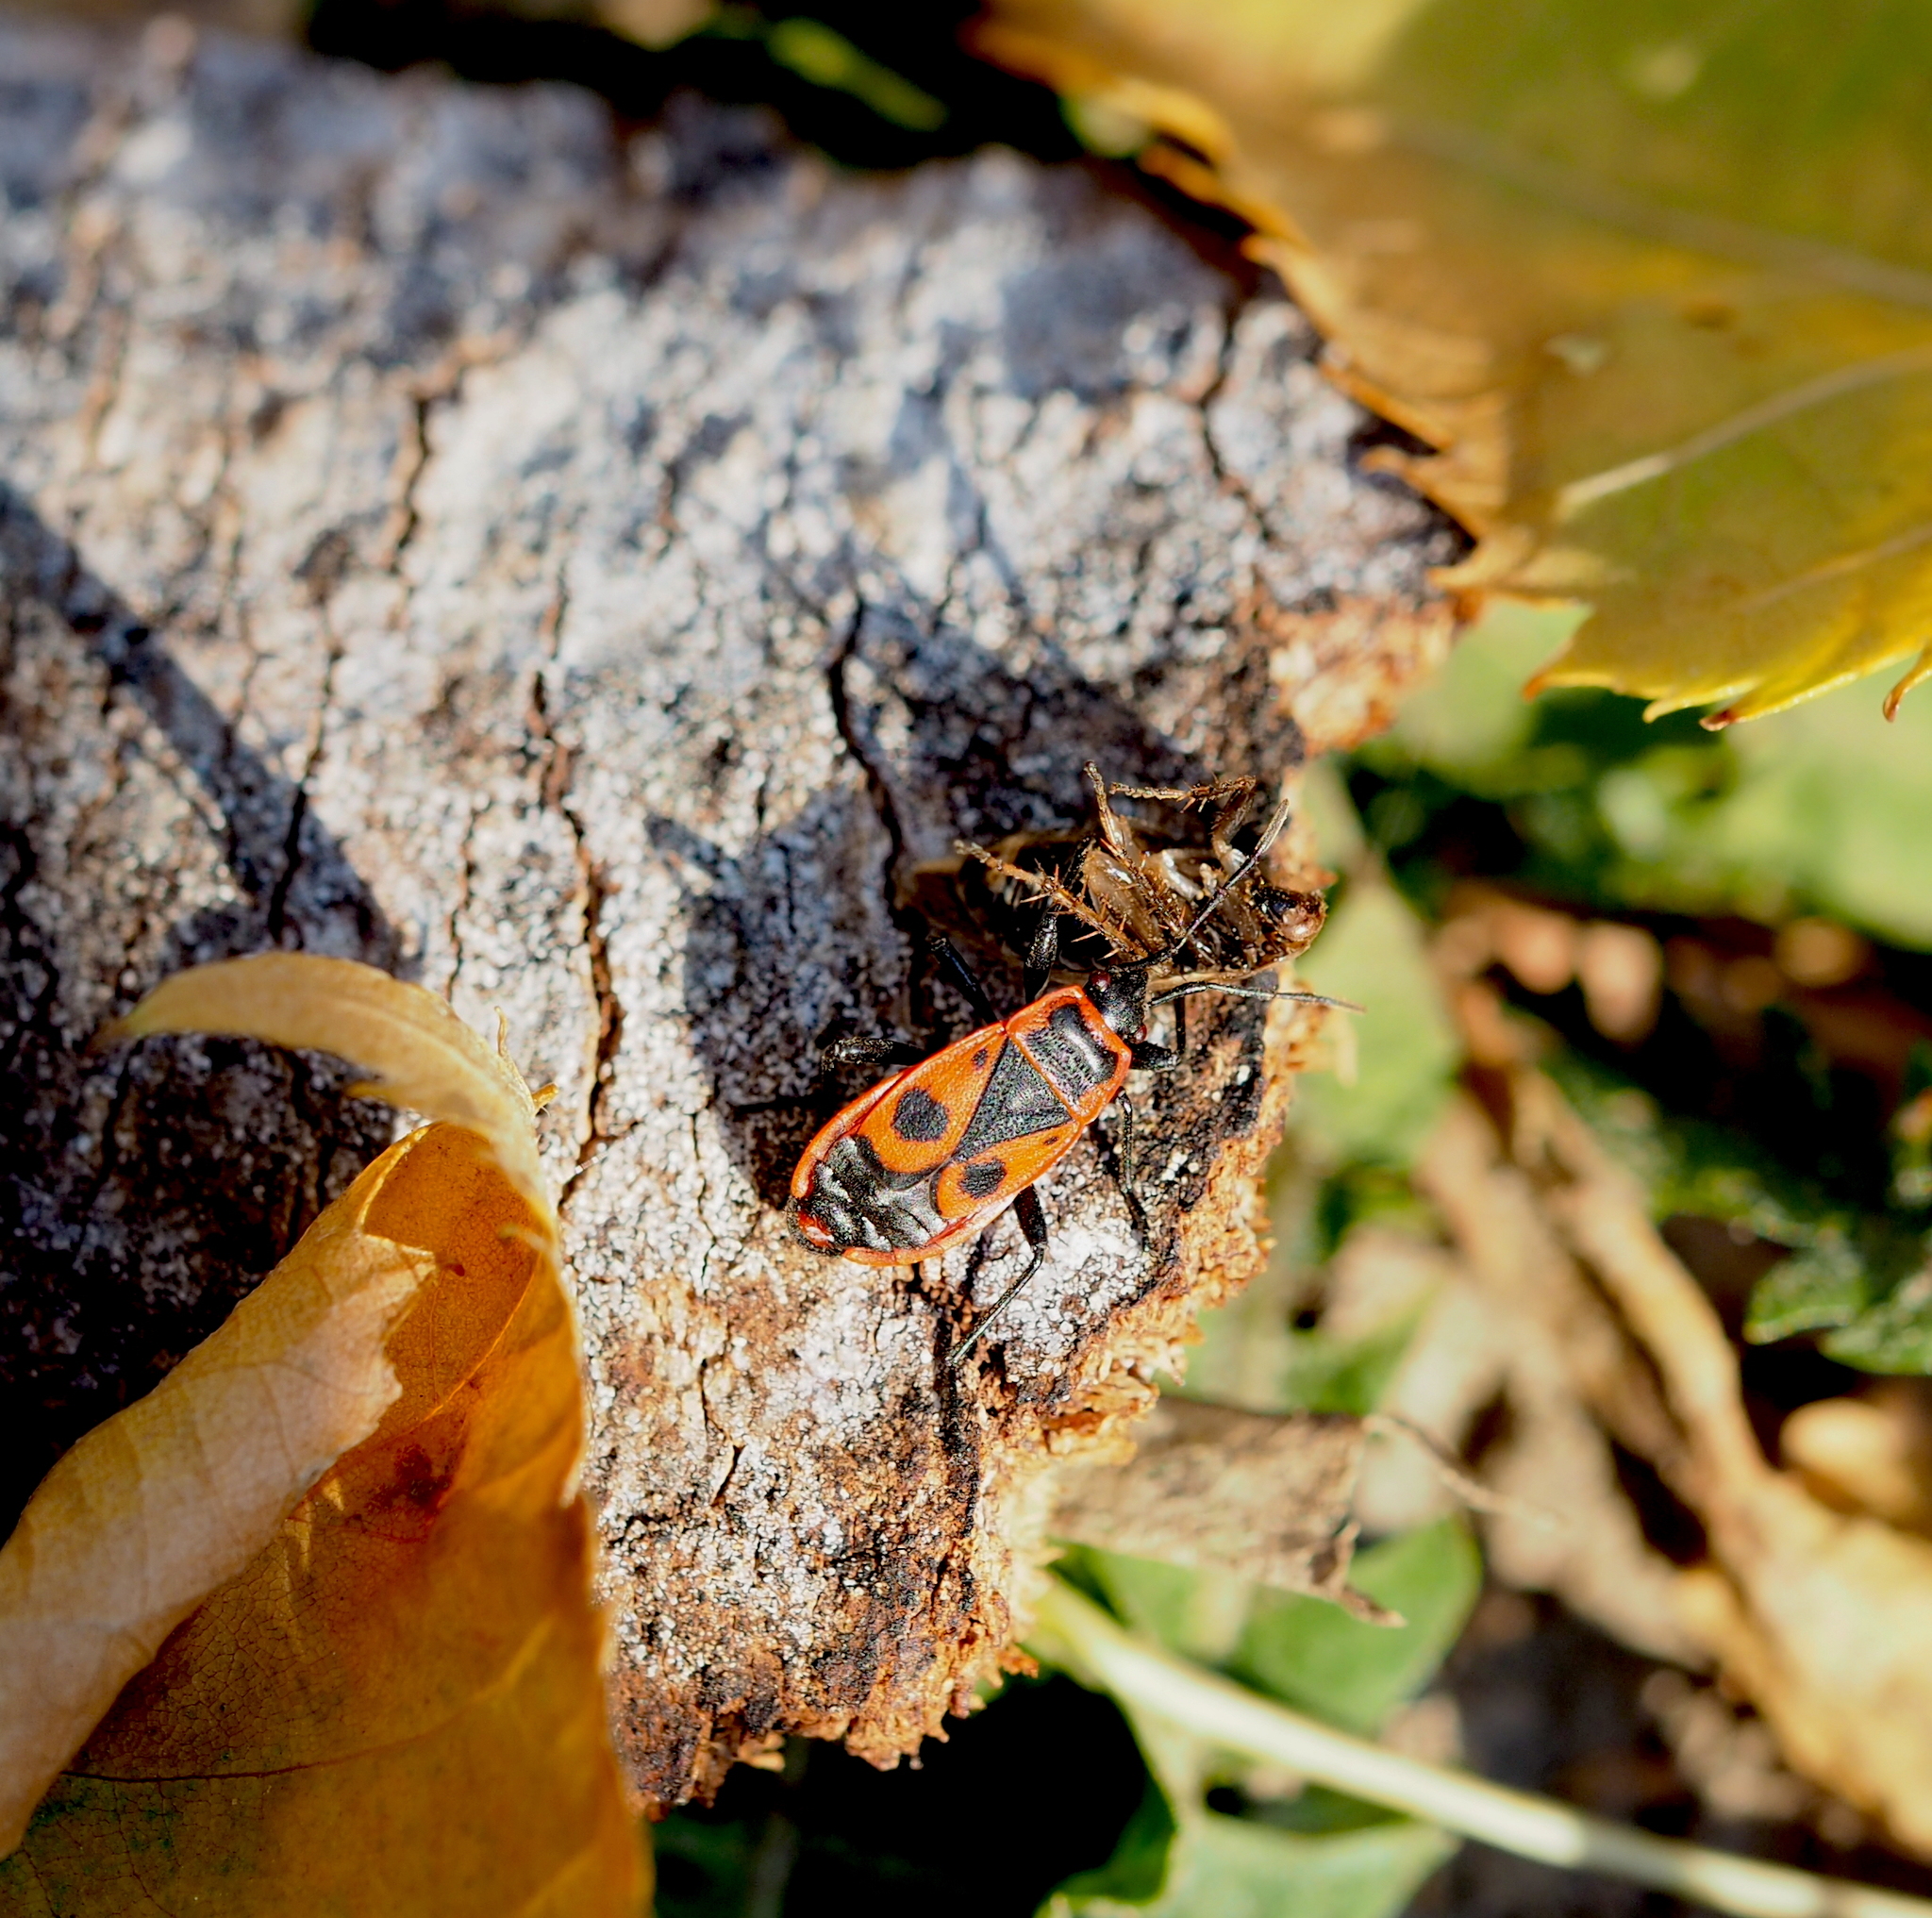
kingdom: Animalia
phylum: Arthropoda
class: Insecta
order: Blattodea
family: Ectobiidae
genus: Ectobius
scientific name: Ectobius vittiventris
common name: Garden cockroach
